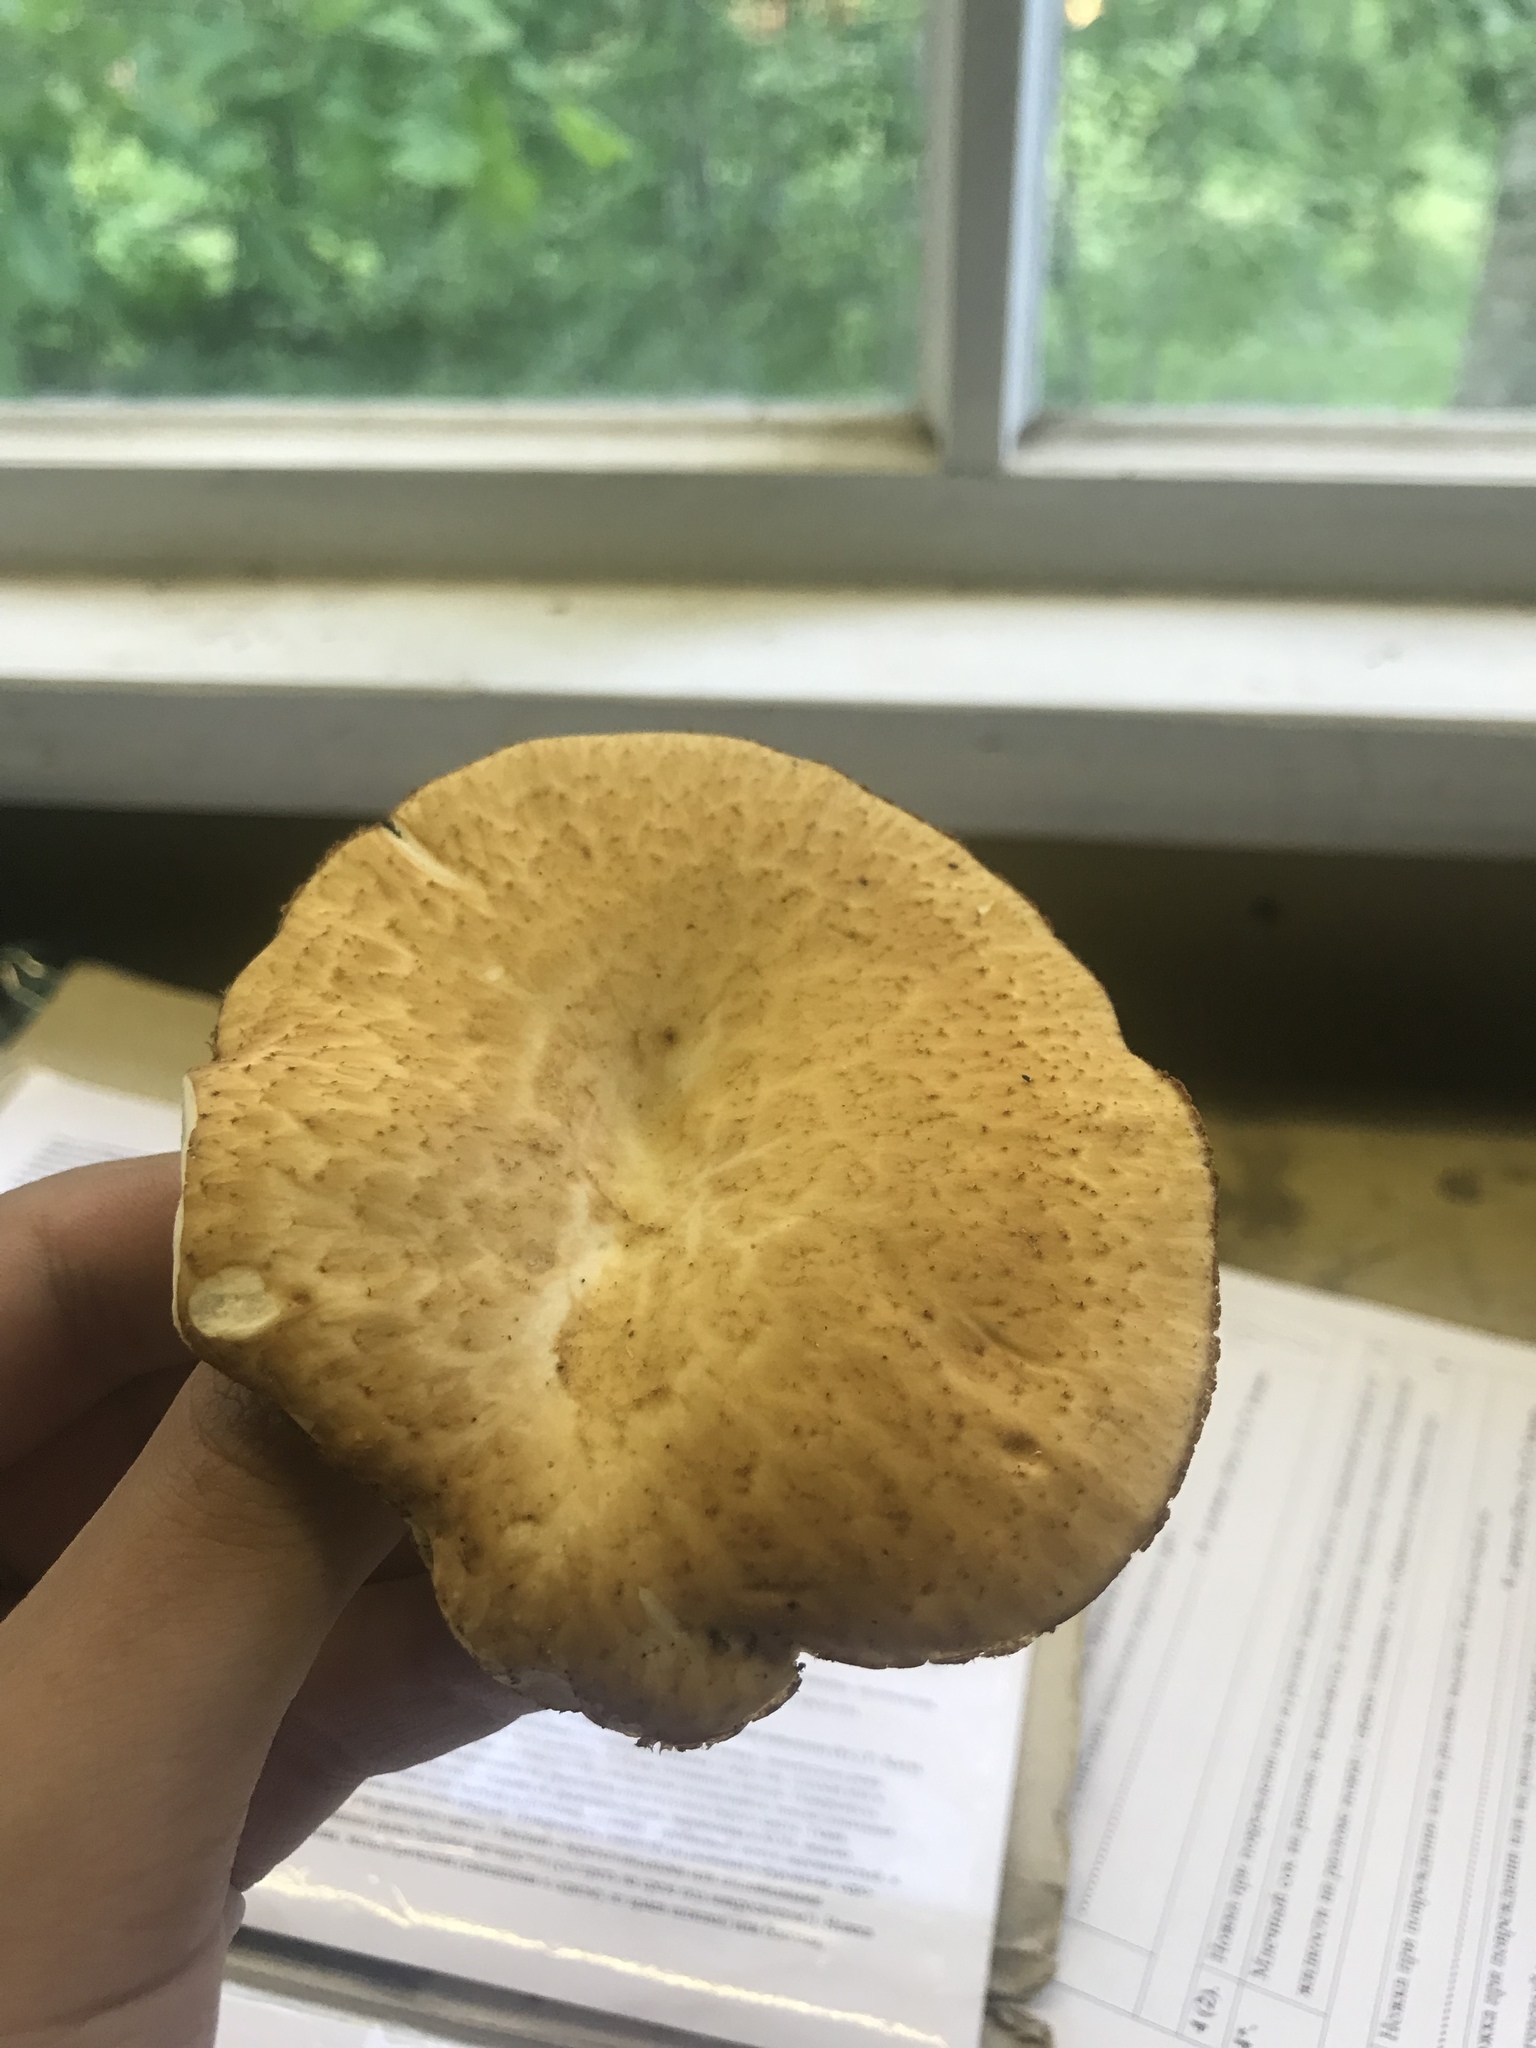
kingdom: Fungi
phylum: Basidiomycota
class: Agaricomycetes
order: Polyporales
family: Polyporaceae
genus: Polyporus
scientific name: Polyporus tuberaster
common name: Tuberous polypore
